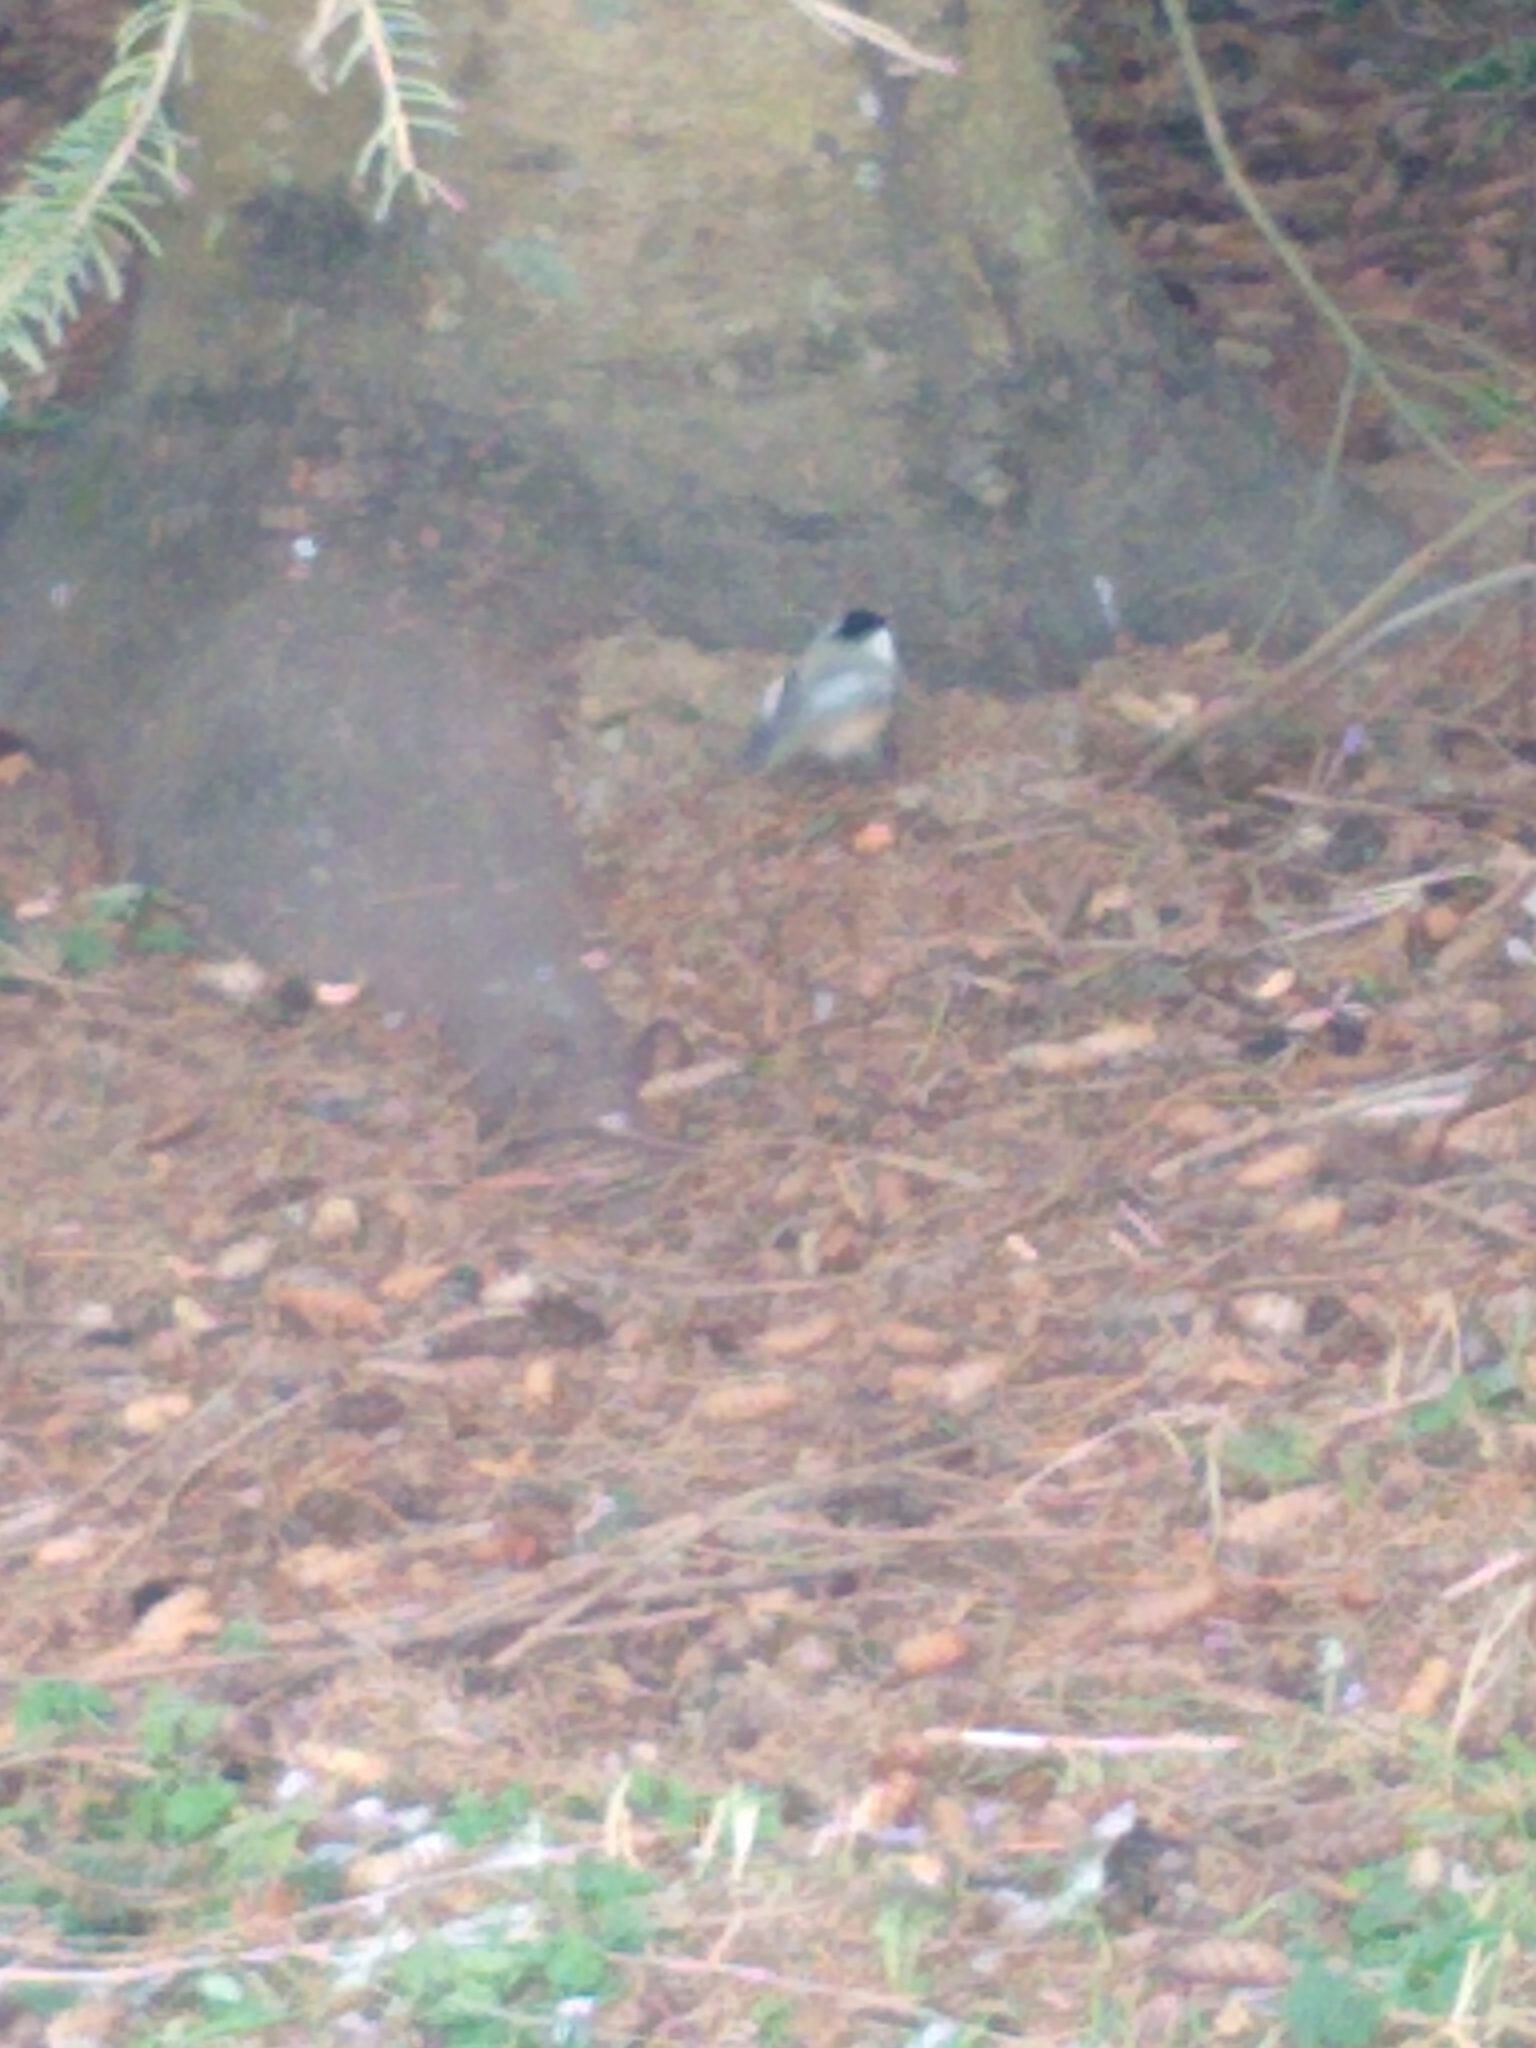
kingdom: Animalia
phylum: Chordata
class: Aves
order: Passeriformes
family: Paridae
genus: Poecile
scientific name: Poecile atricapillus
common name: Black-capped chickadee
